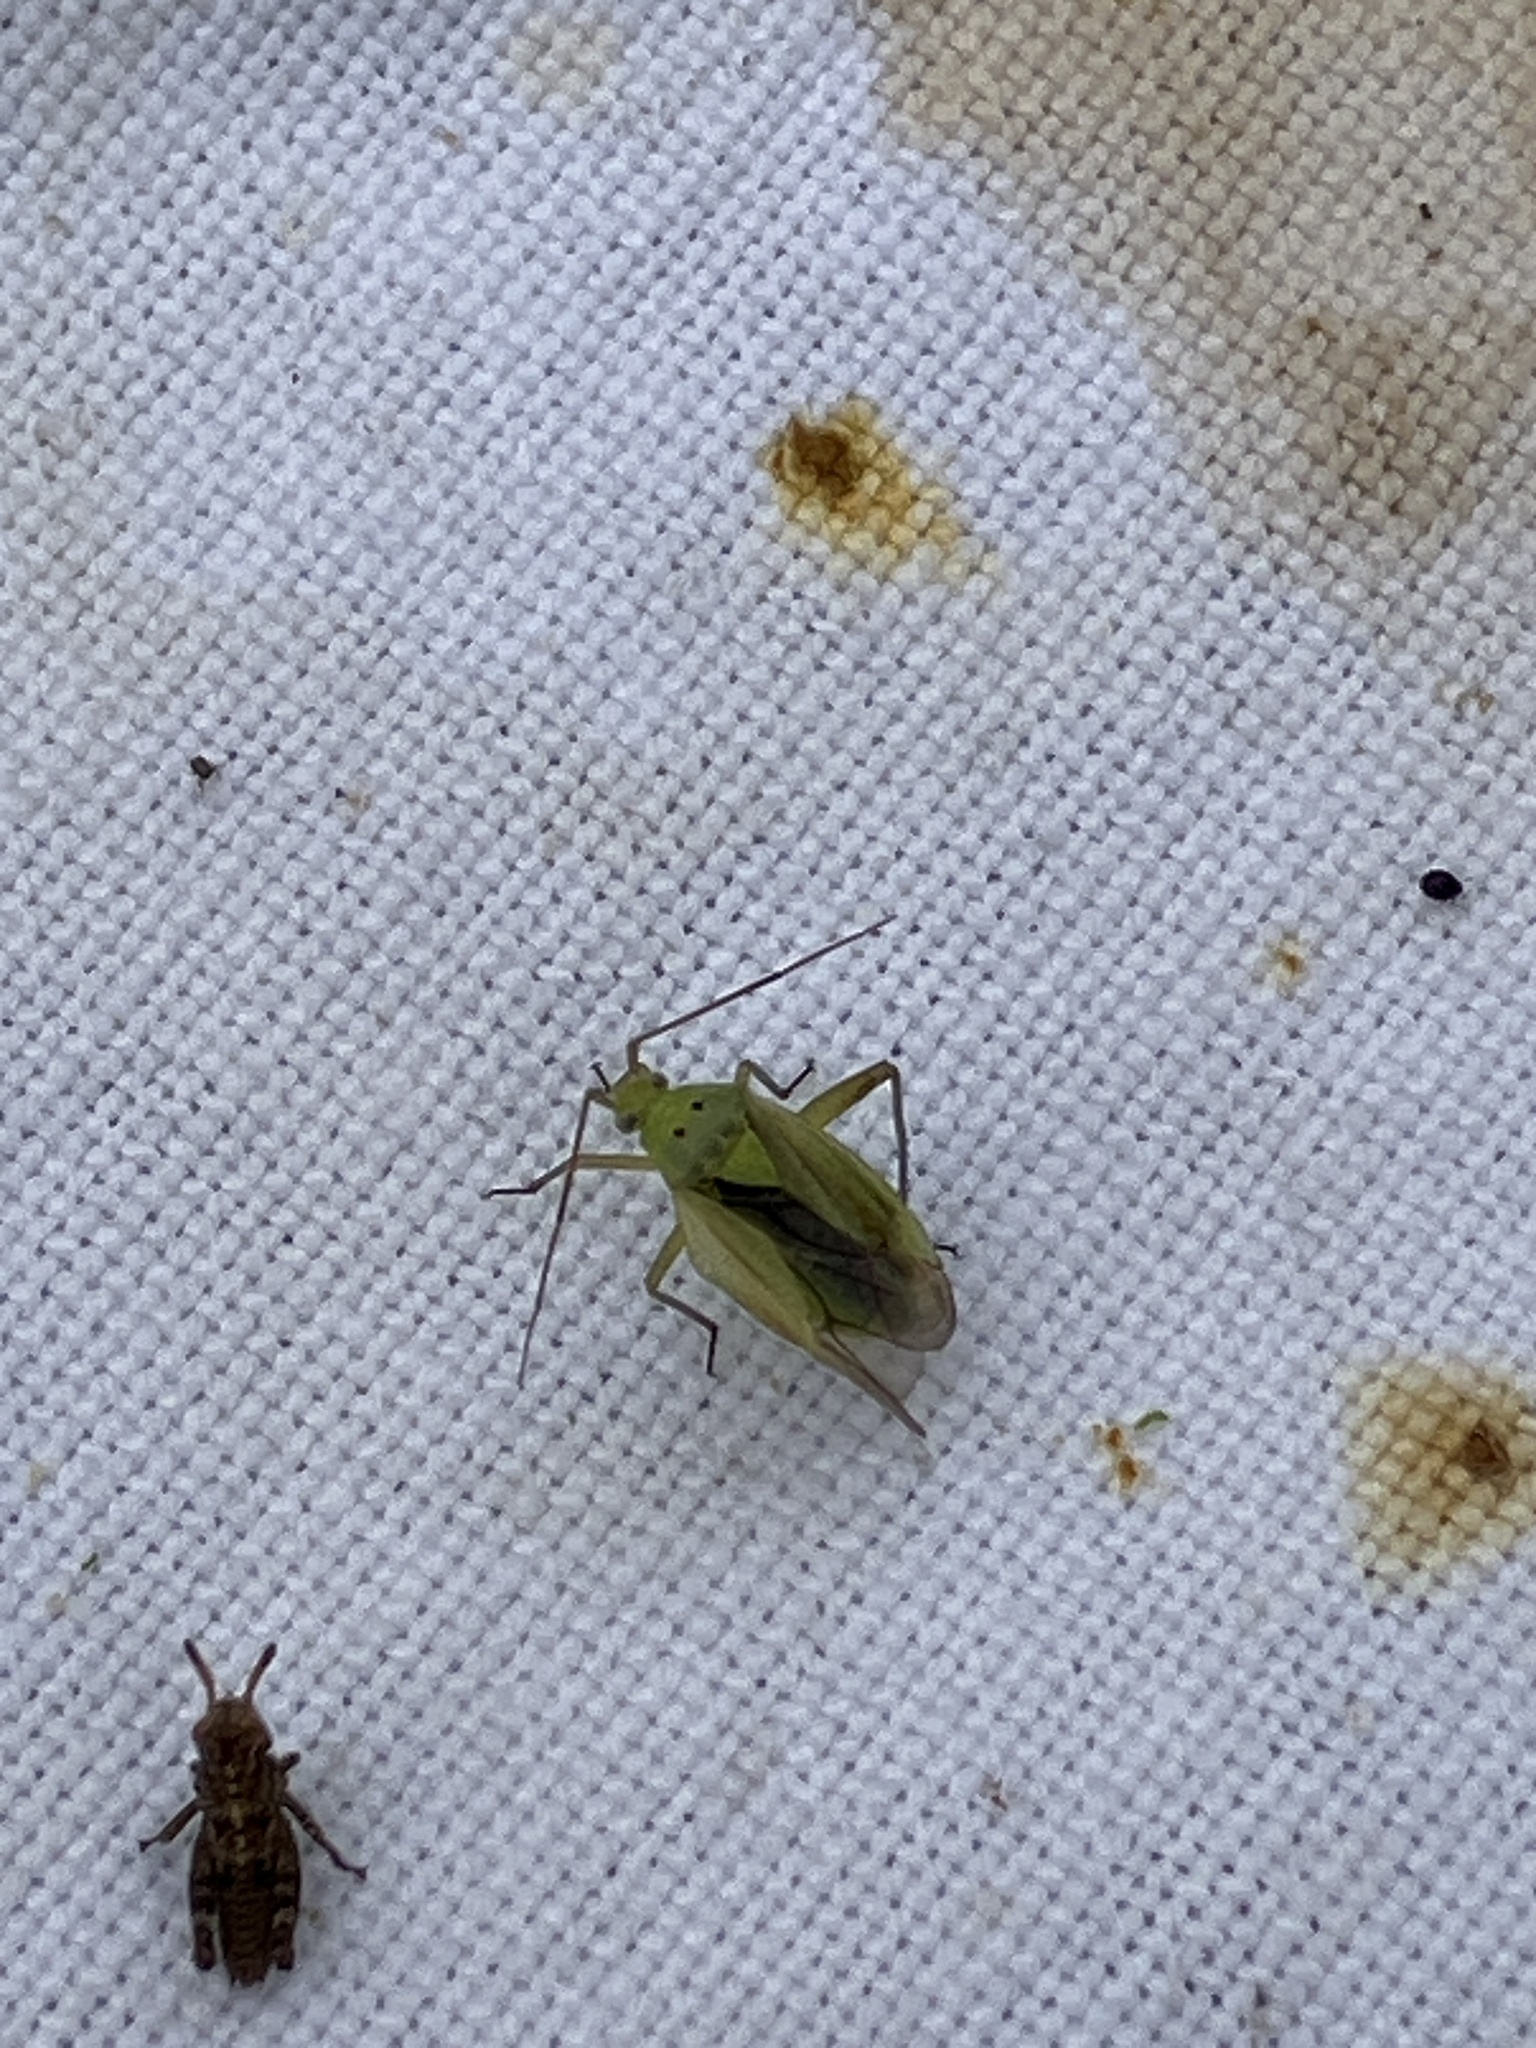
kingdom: Animalia
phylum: Arthropoda
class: Insecta
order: Hemiptera
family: Miridae
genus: Closterotomus
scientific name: Closterotomus norvegicus
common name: Plant bug
